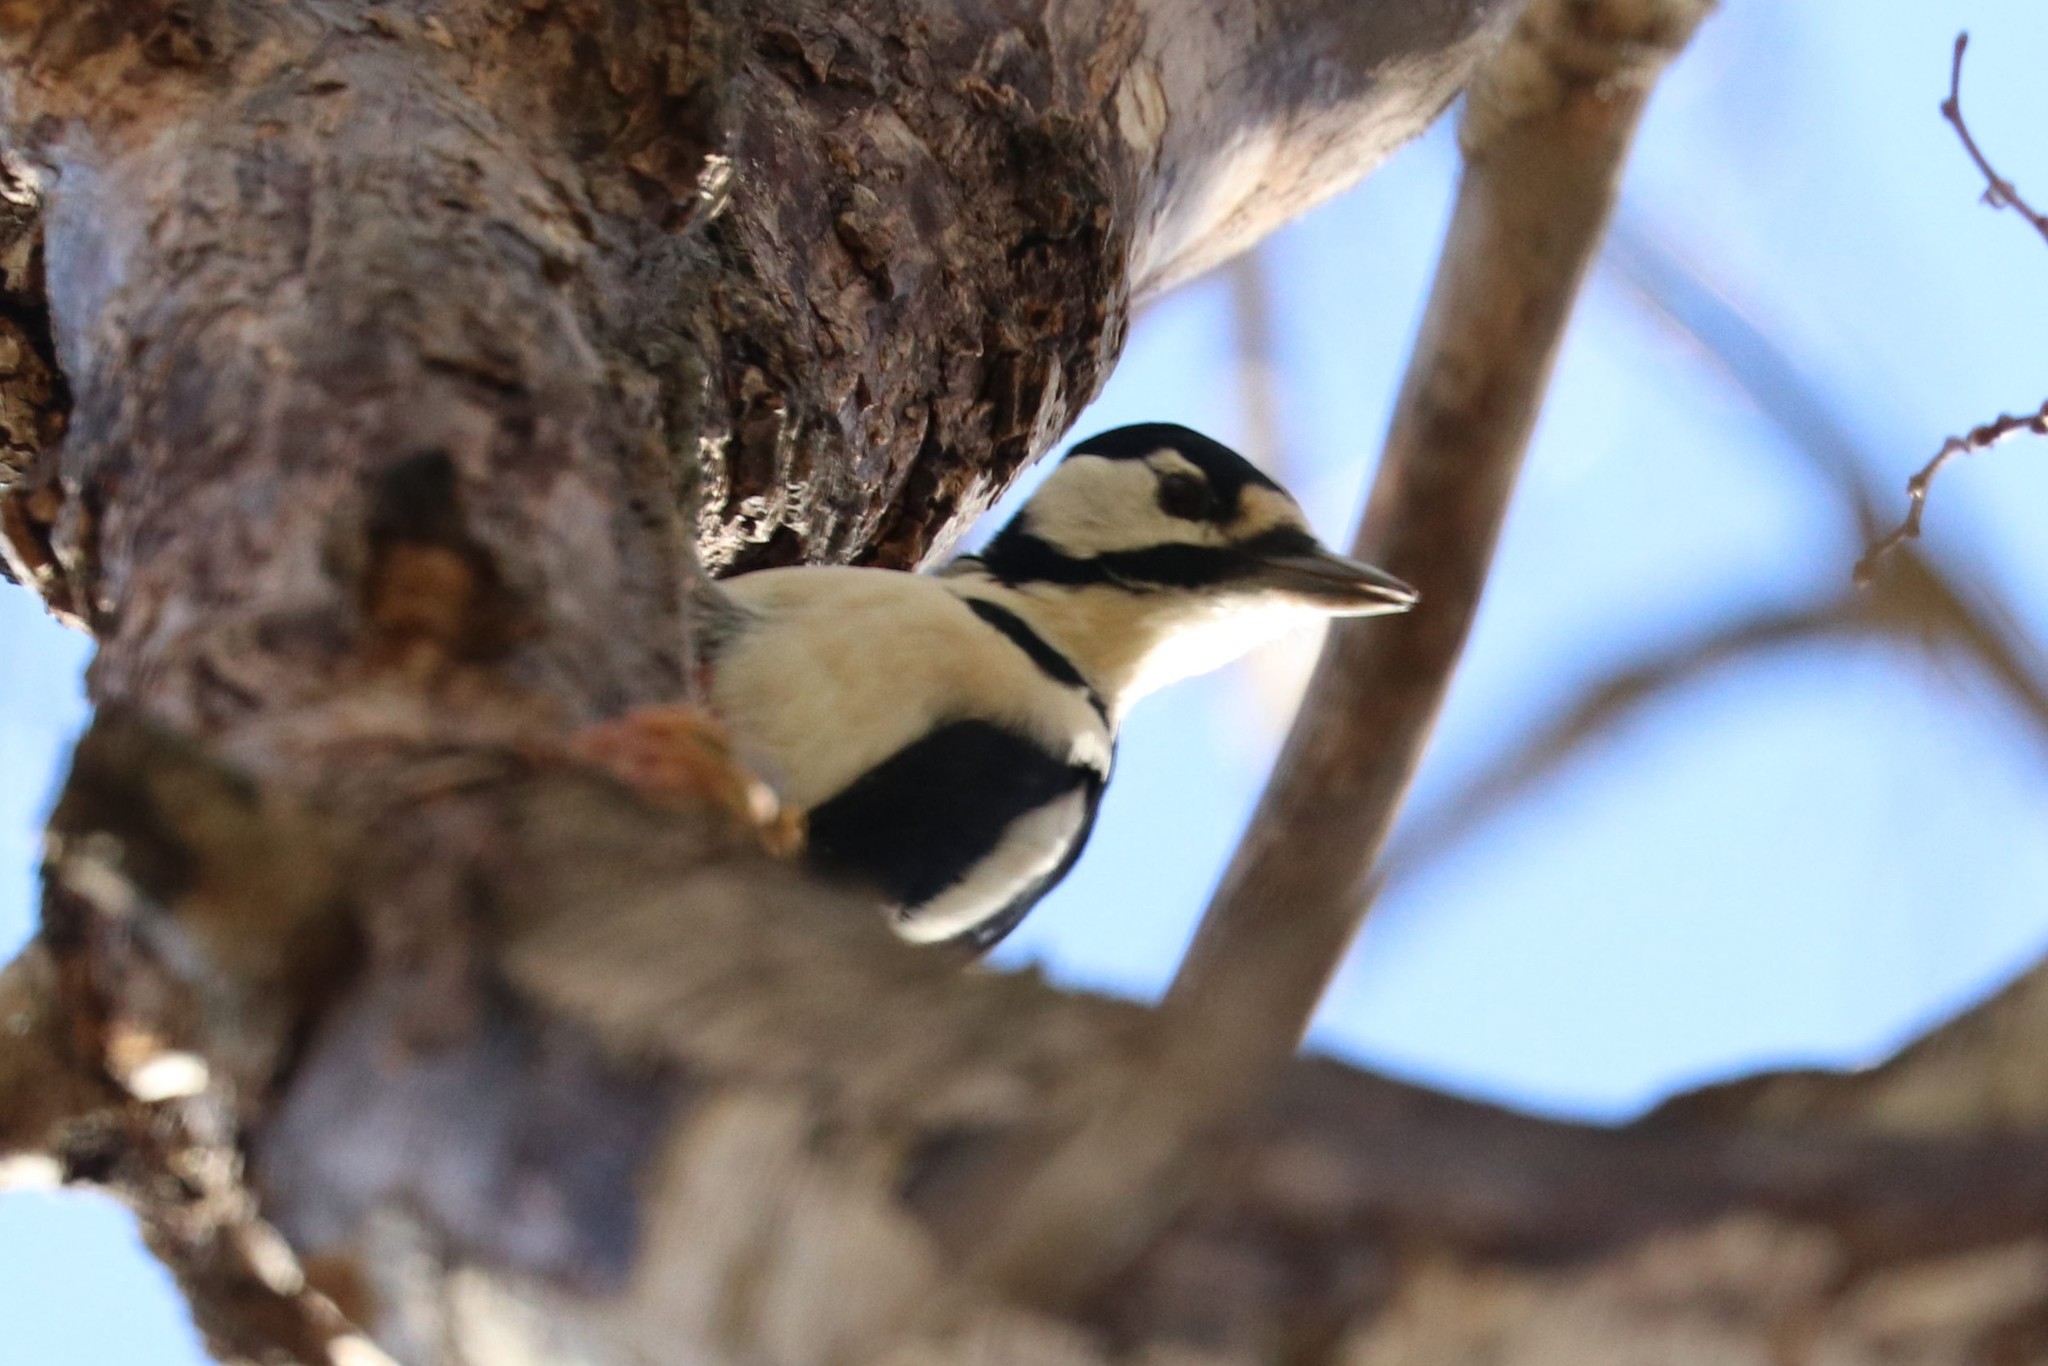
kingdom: Animalia
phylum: Chordata
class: Aves
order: Piciformes
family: Picidae
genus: Dendrocopos
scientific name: Dendrocopos major
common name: Great spotted woodpecker
